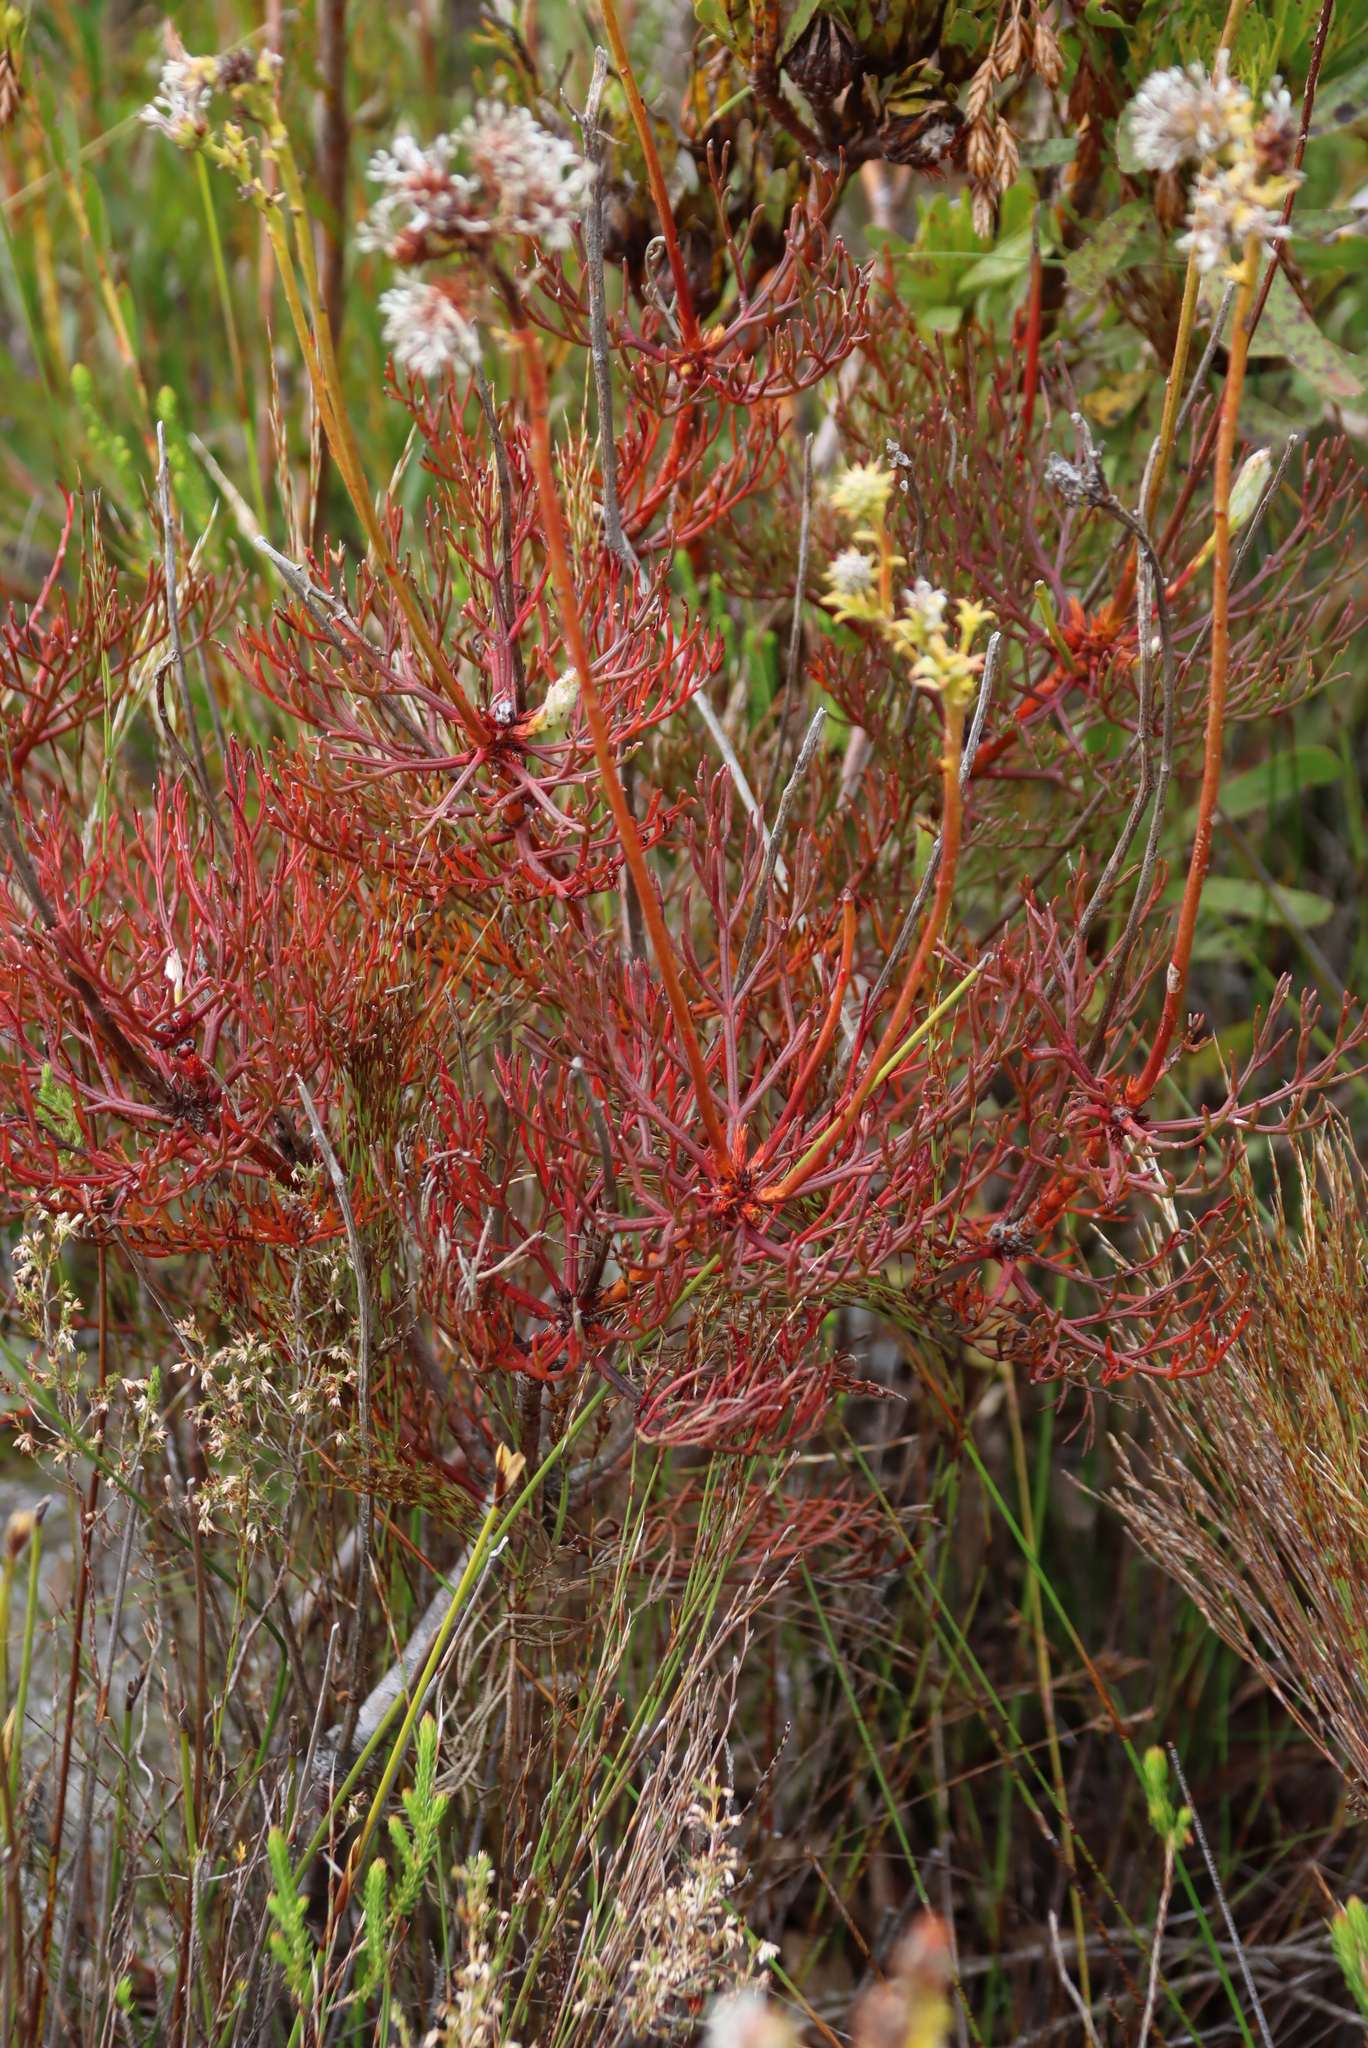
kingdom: Plantae
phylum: Tracheophyta
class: Magnoliopsida
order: Proteales
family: Proteaceae
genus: Serruria
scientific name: Serruria elongata
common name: Long-stalk spiderhead
